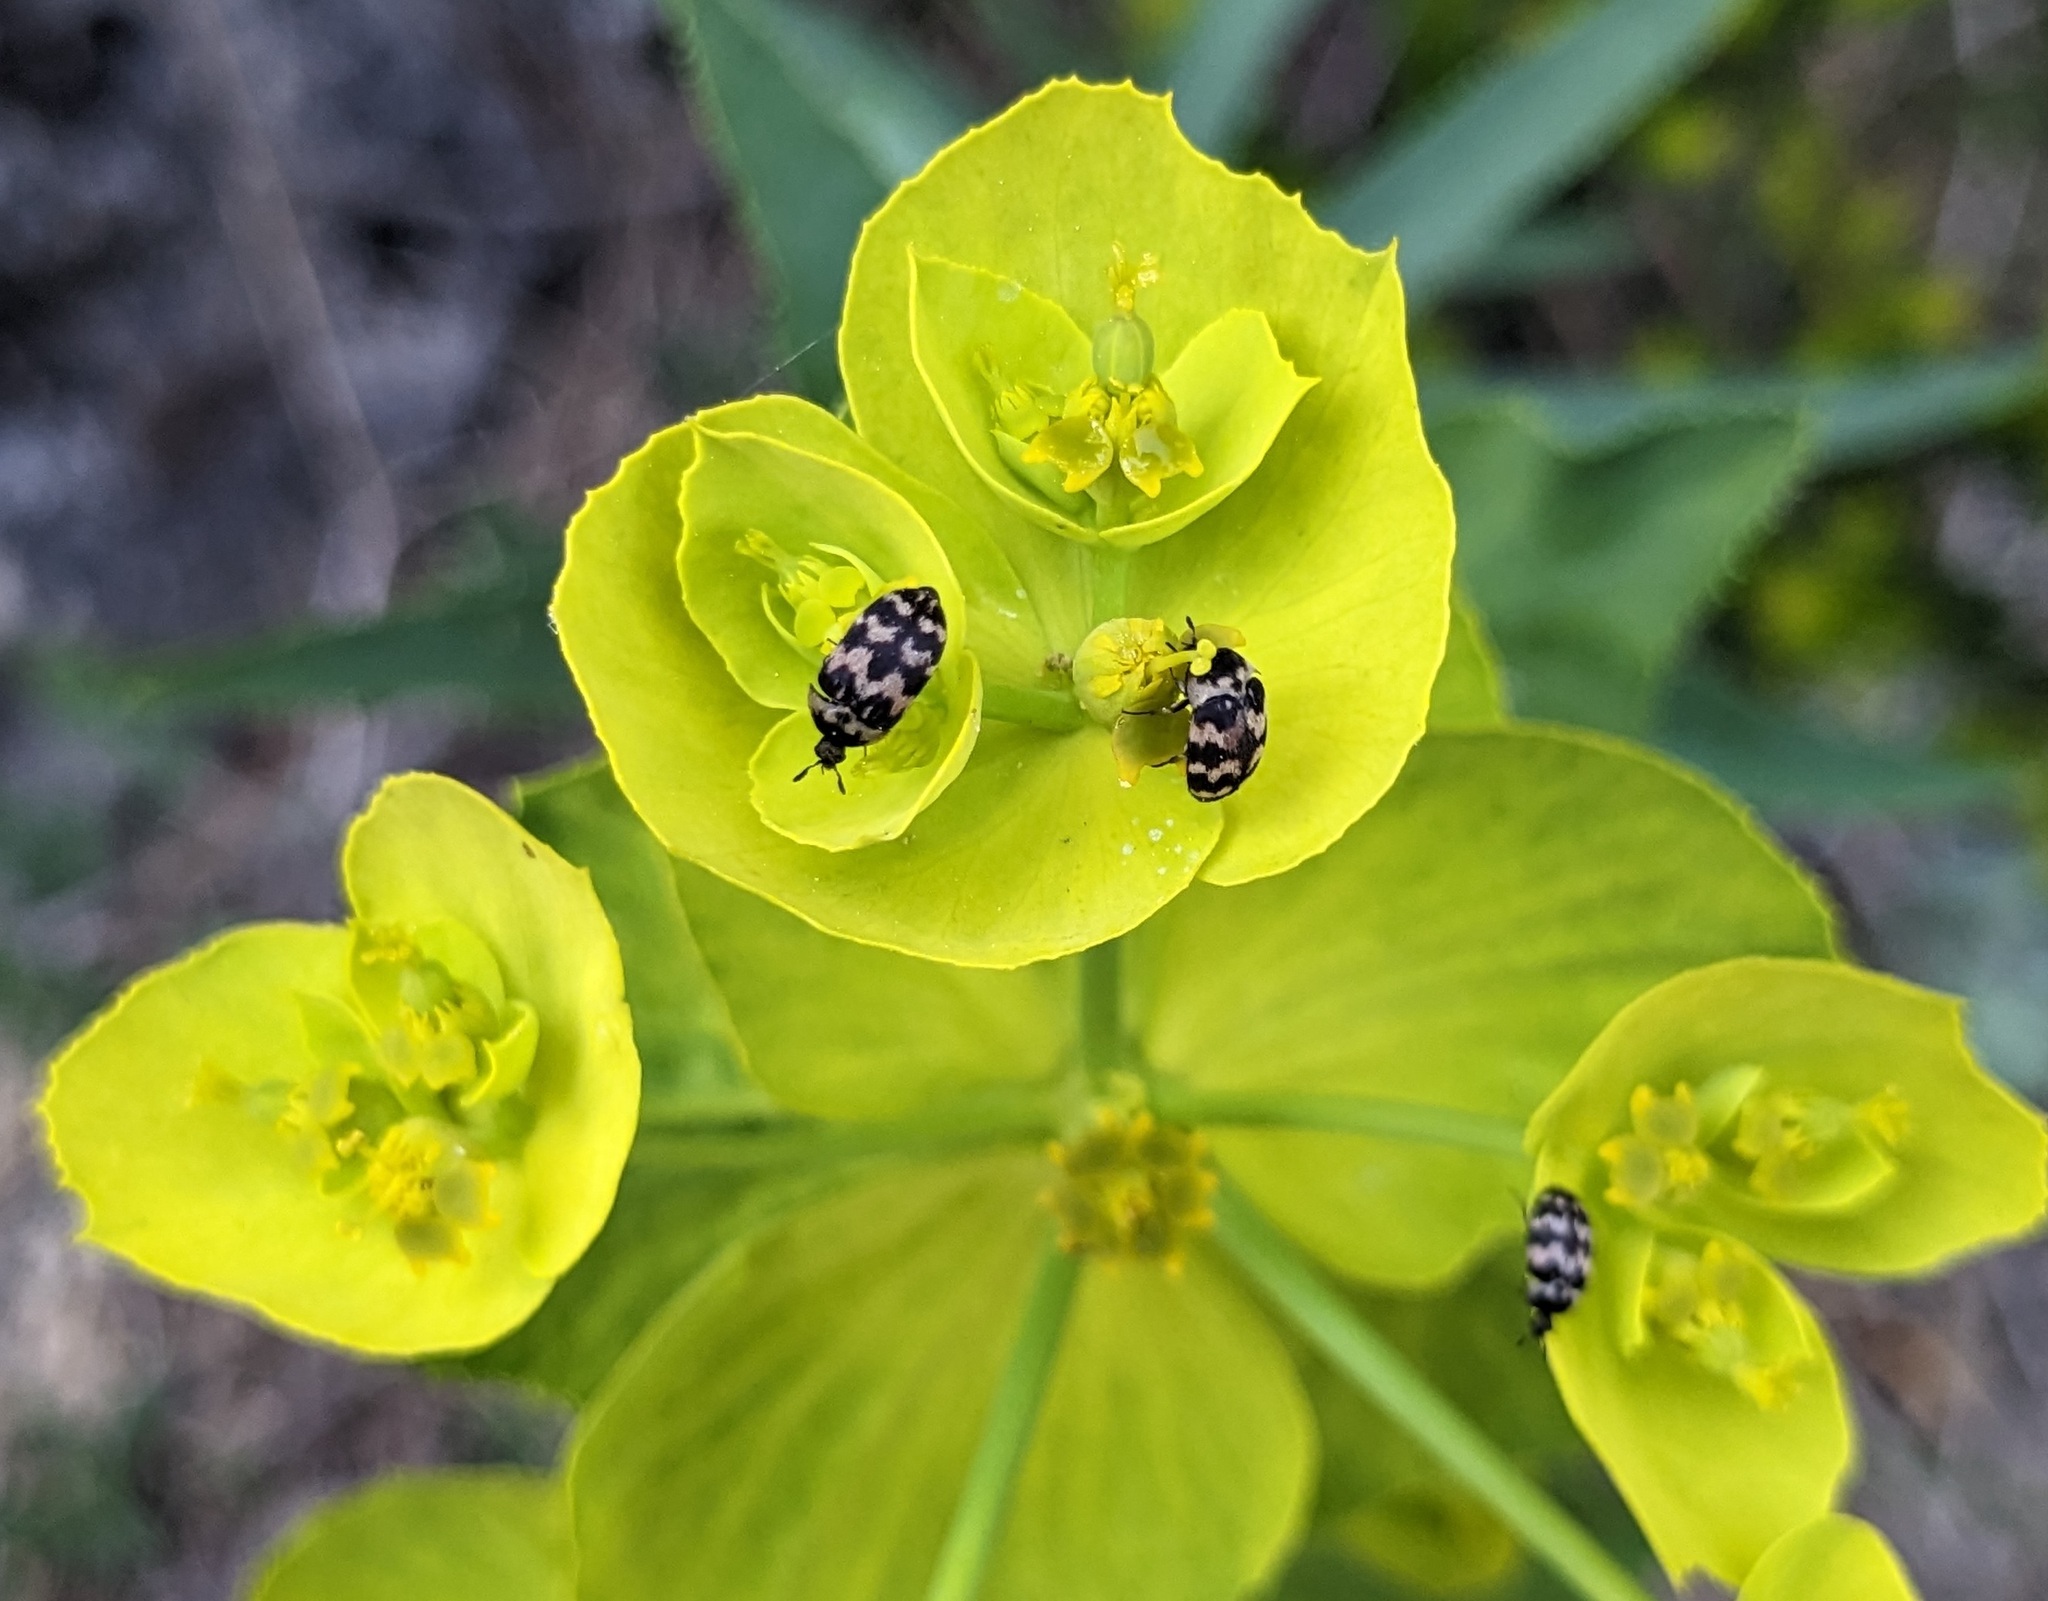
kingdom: Animalia
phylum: Arthropoda
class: Insecta
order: Coleoptera
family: Dermestidae
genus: Attagenus
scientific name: Attagenus trifasciatus
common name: Carpet beetle
